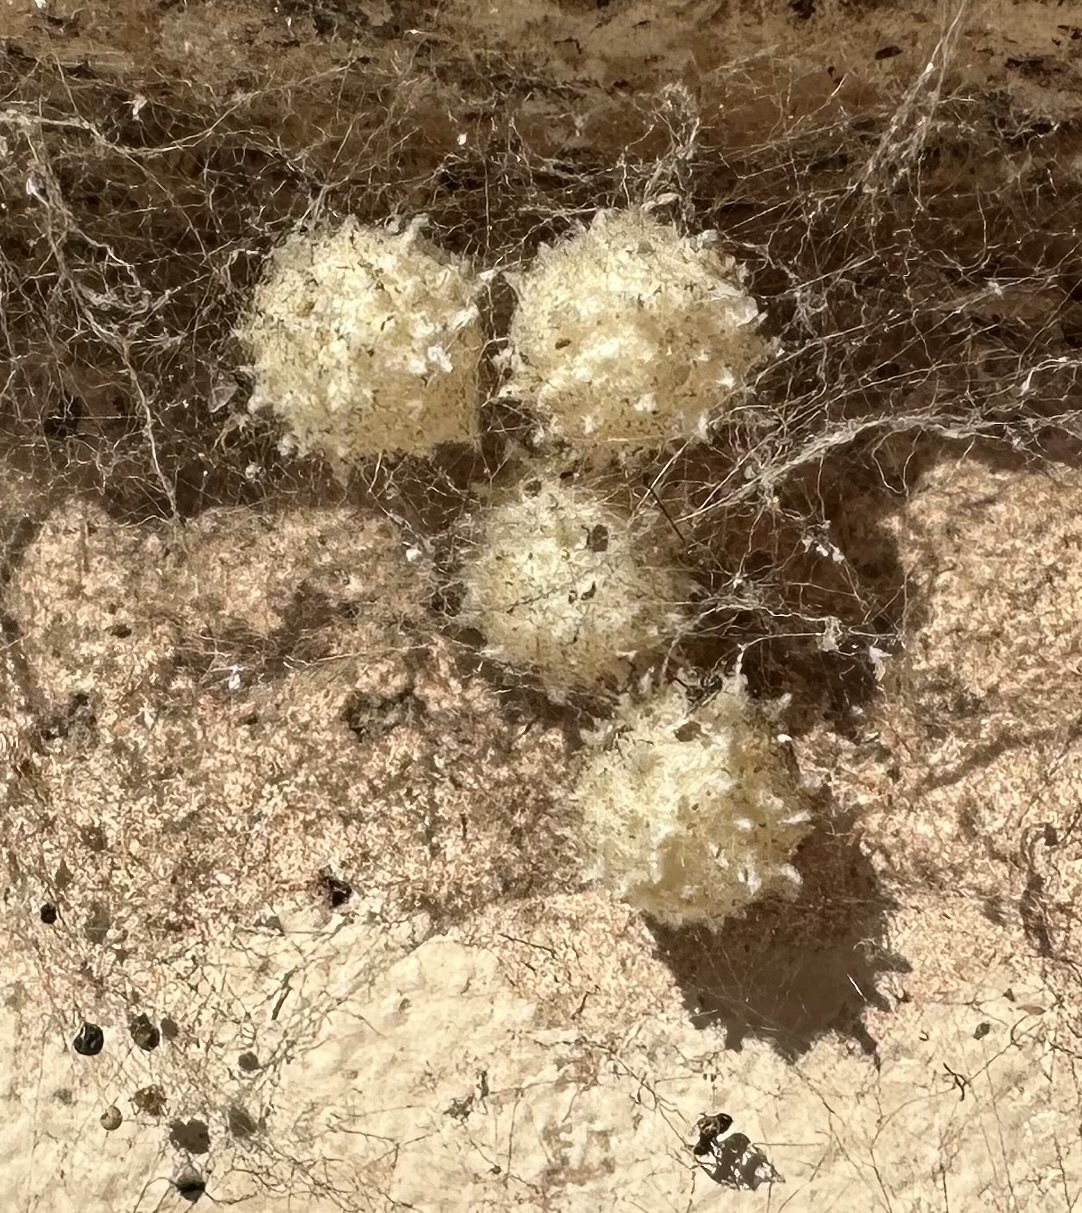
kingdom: Animalia
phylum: Arthropoda
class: Arachnida
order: Araneae
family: Theridiidae
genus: Latrodectus
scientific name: Latrodectus geometricus
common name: Brown widow spider
